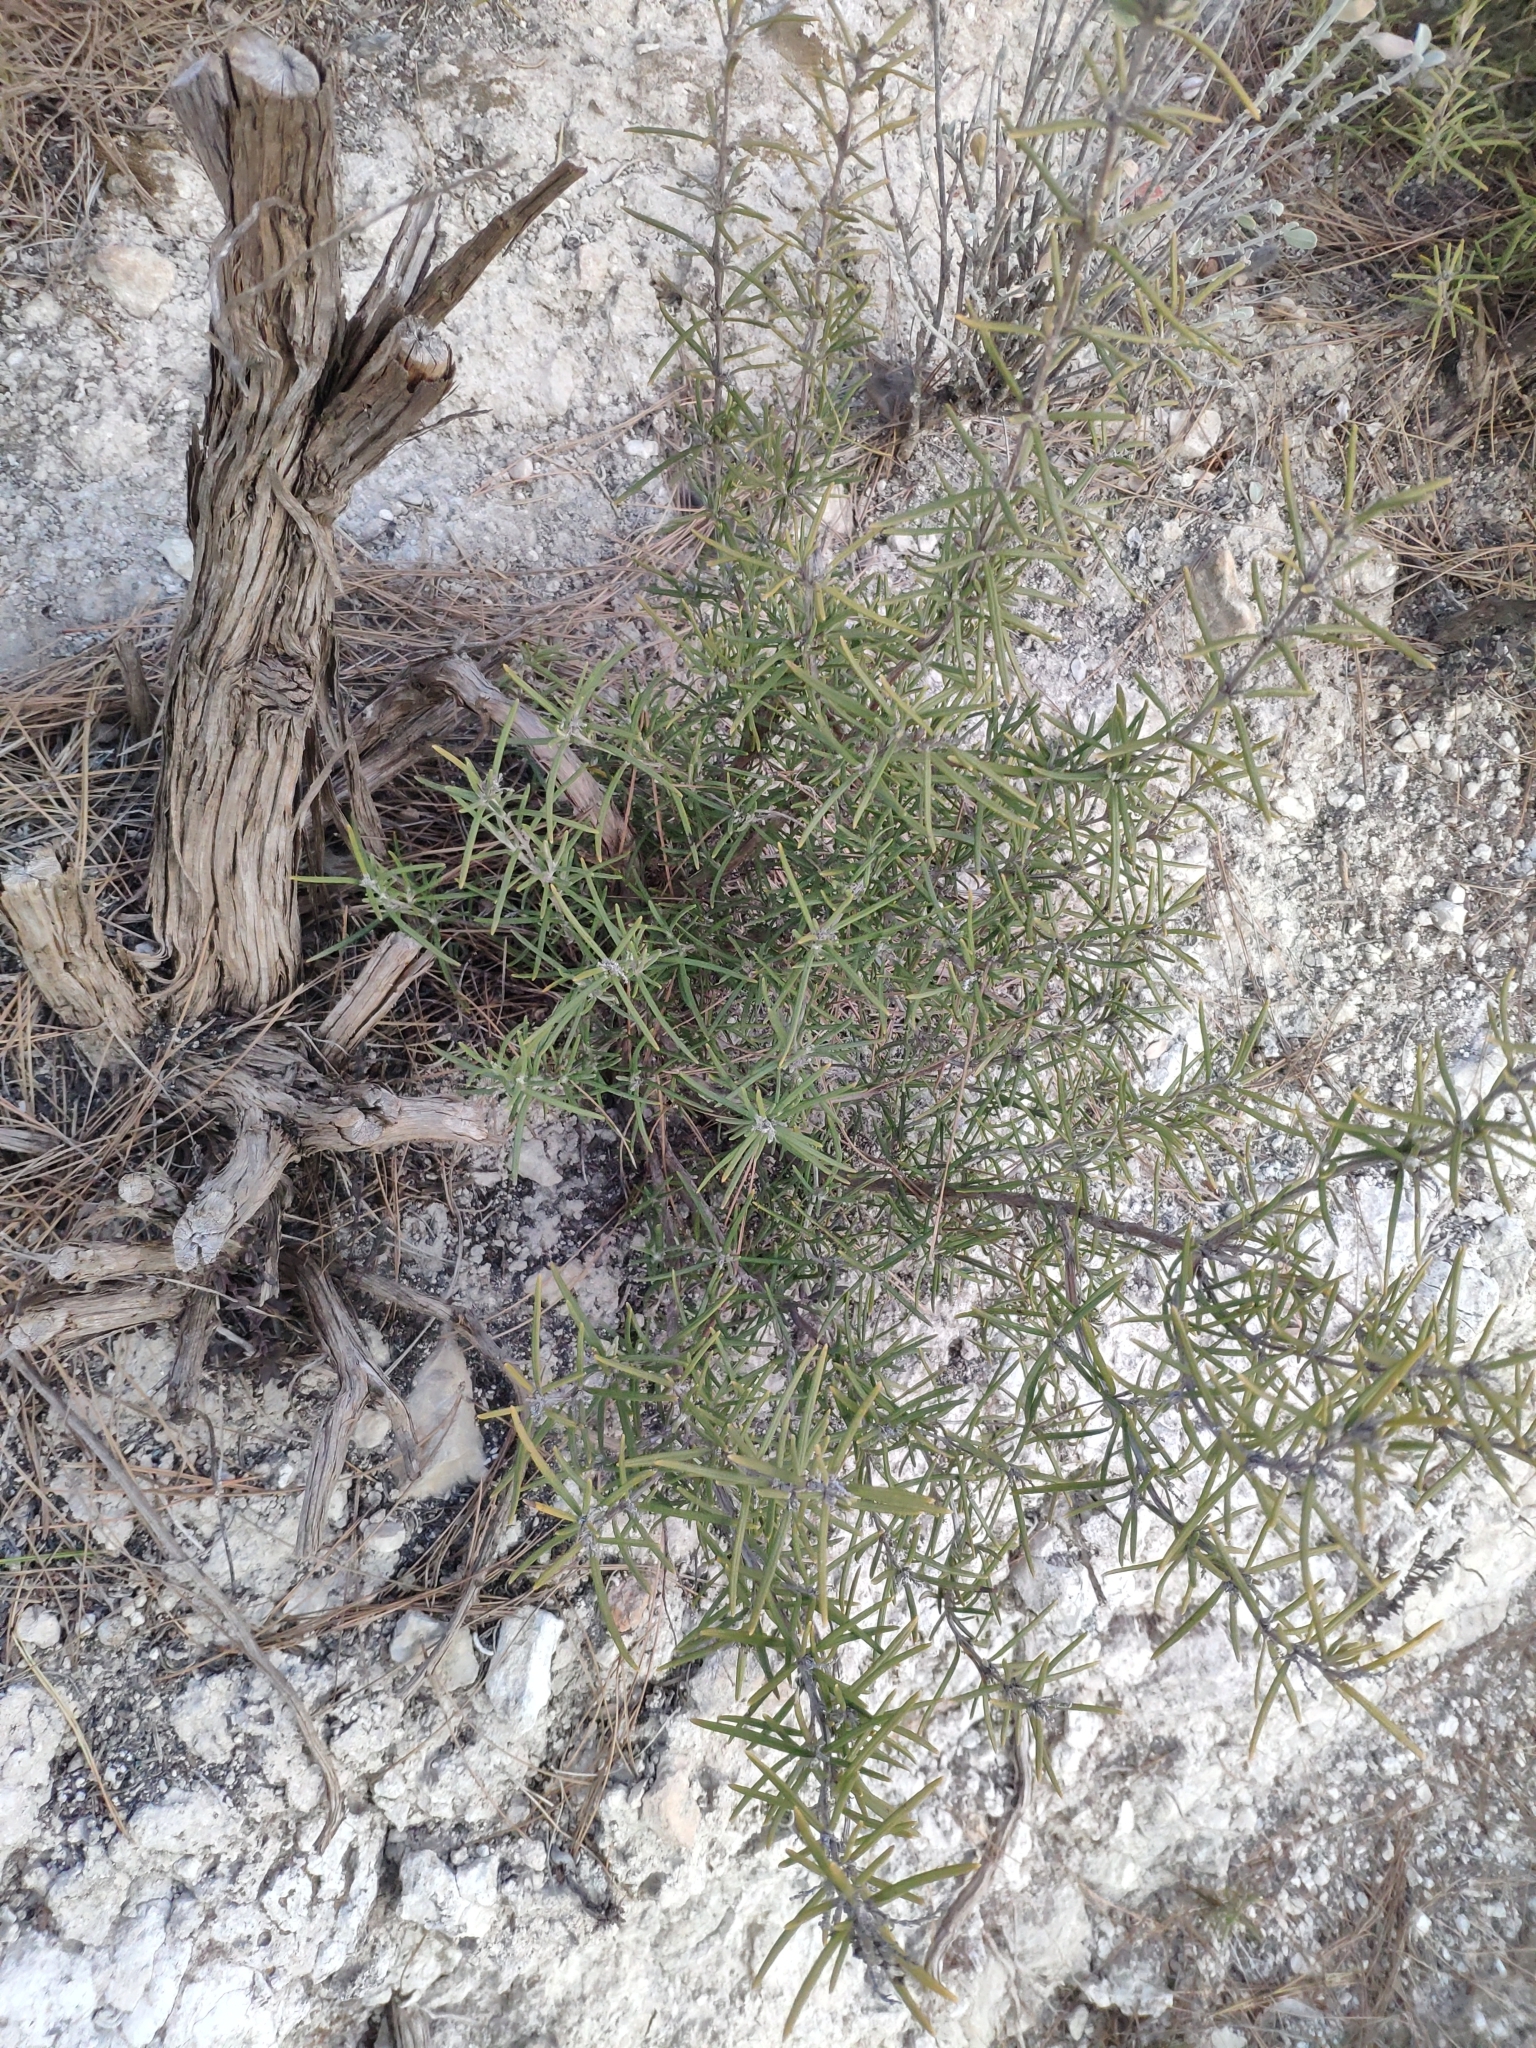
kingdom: Plantae
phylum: Tracheophyta
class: Magnoliopsida
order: Lamiales
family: Lamiaceae
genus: Salvia
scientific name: Salvia rosmarinus
